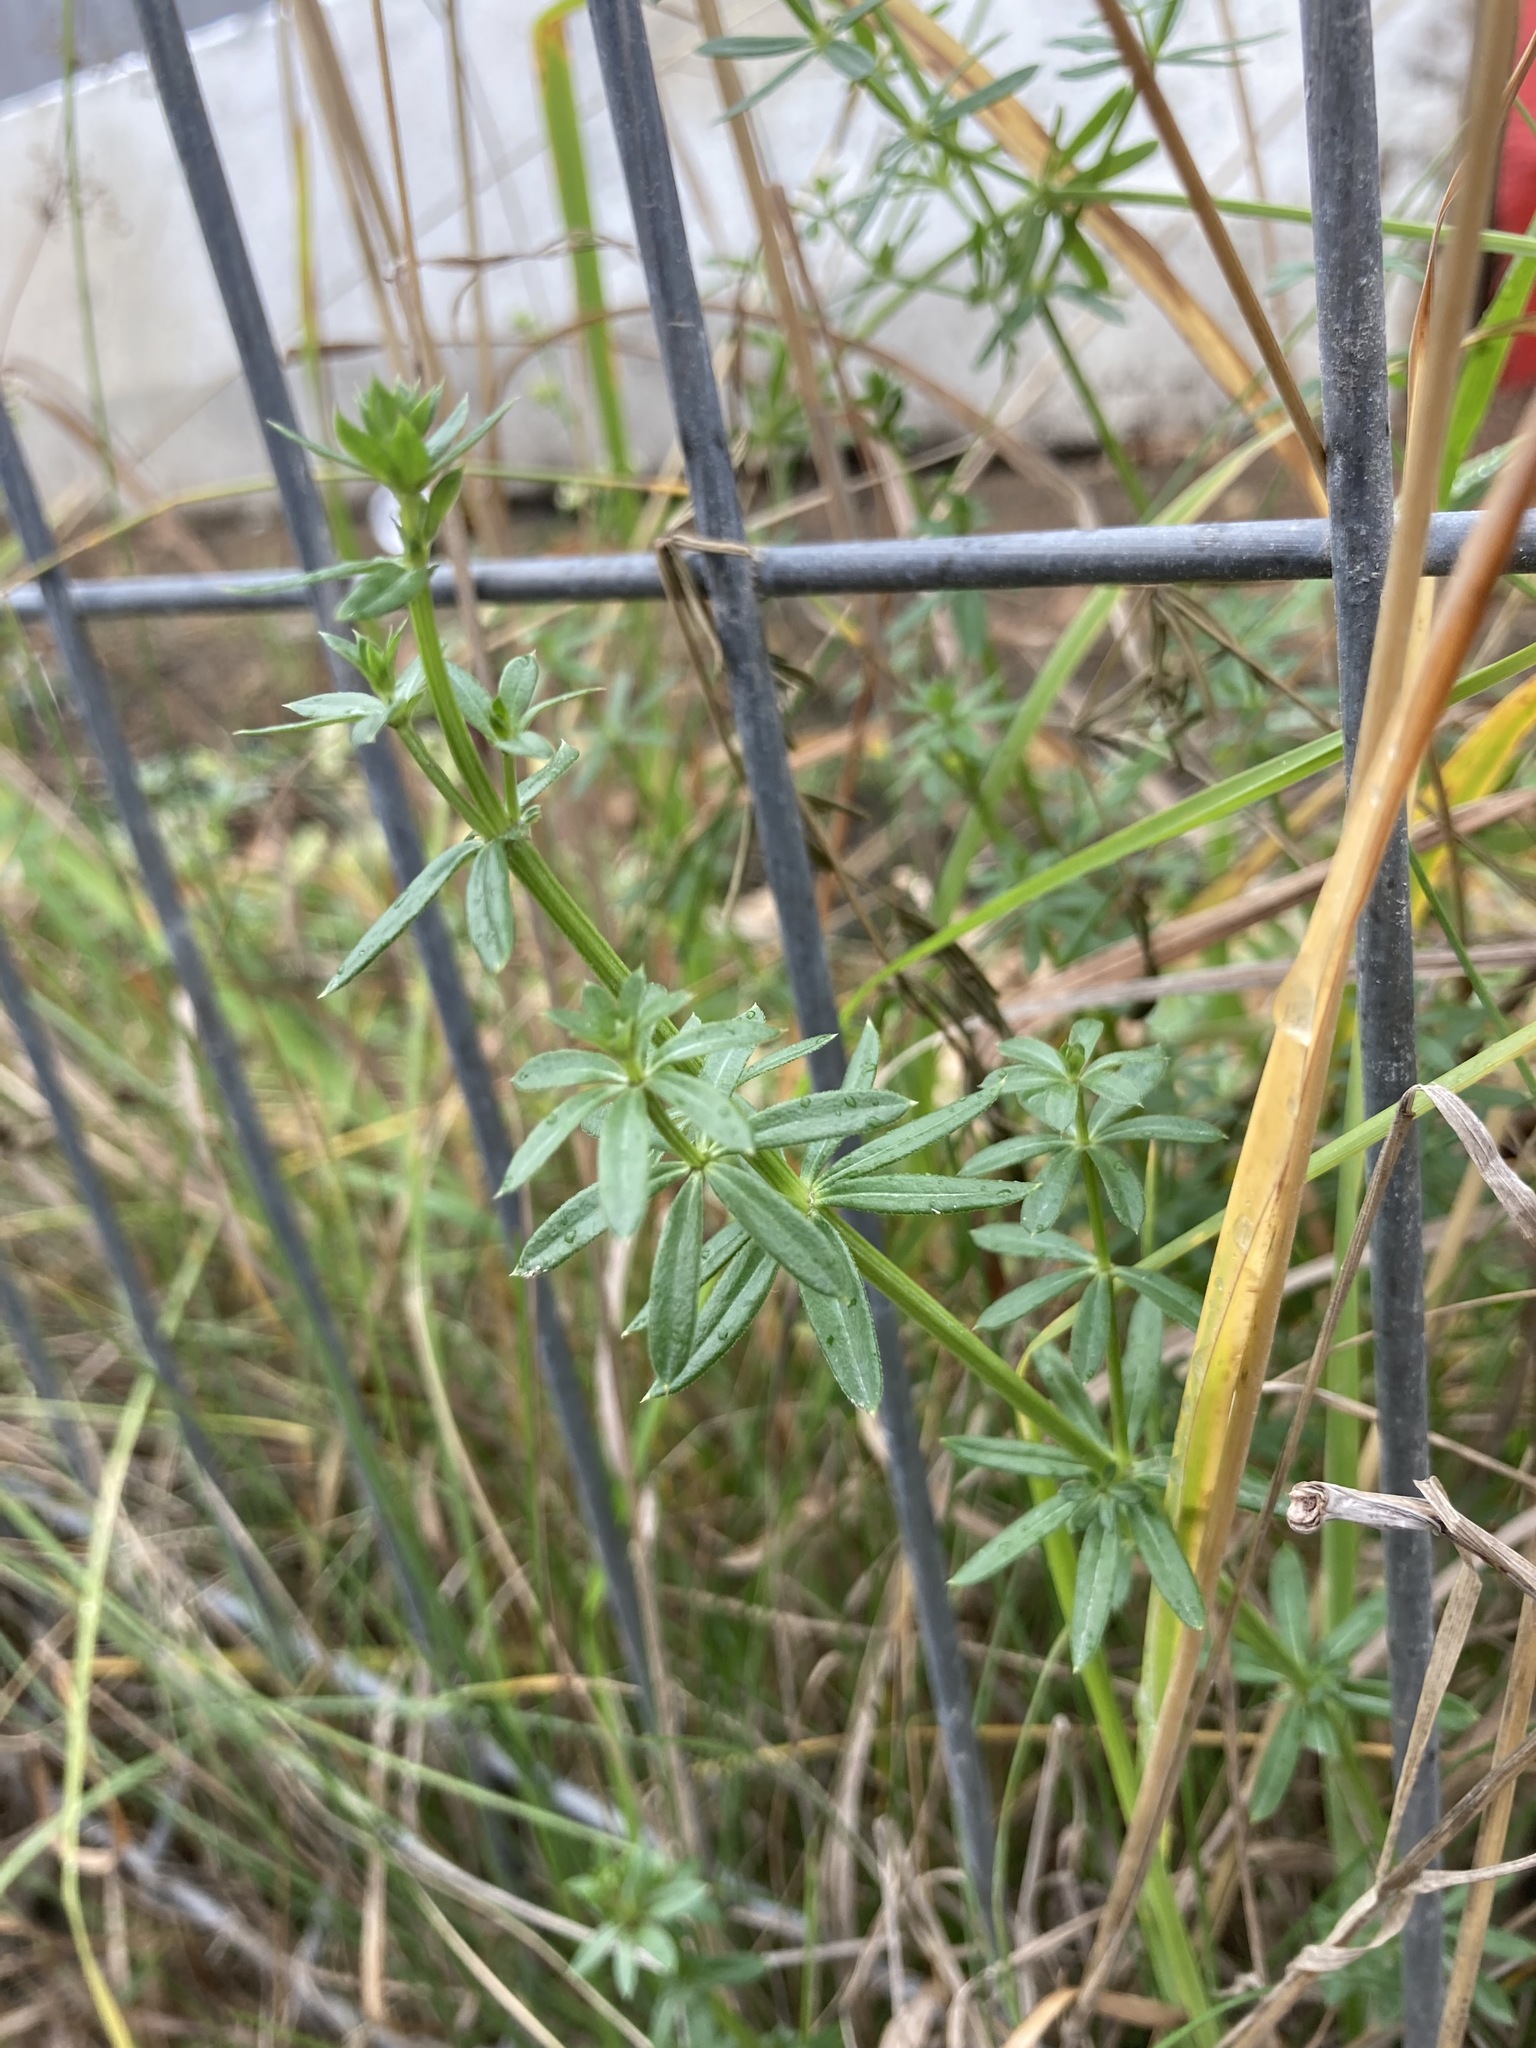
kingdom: Plantae
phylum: Tracheophyta
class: Magnoliopsida
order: Gentianales
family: Rubiaceae
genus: Galium
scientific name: Galium mollugo
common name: Hedge bedstraw
